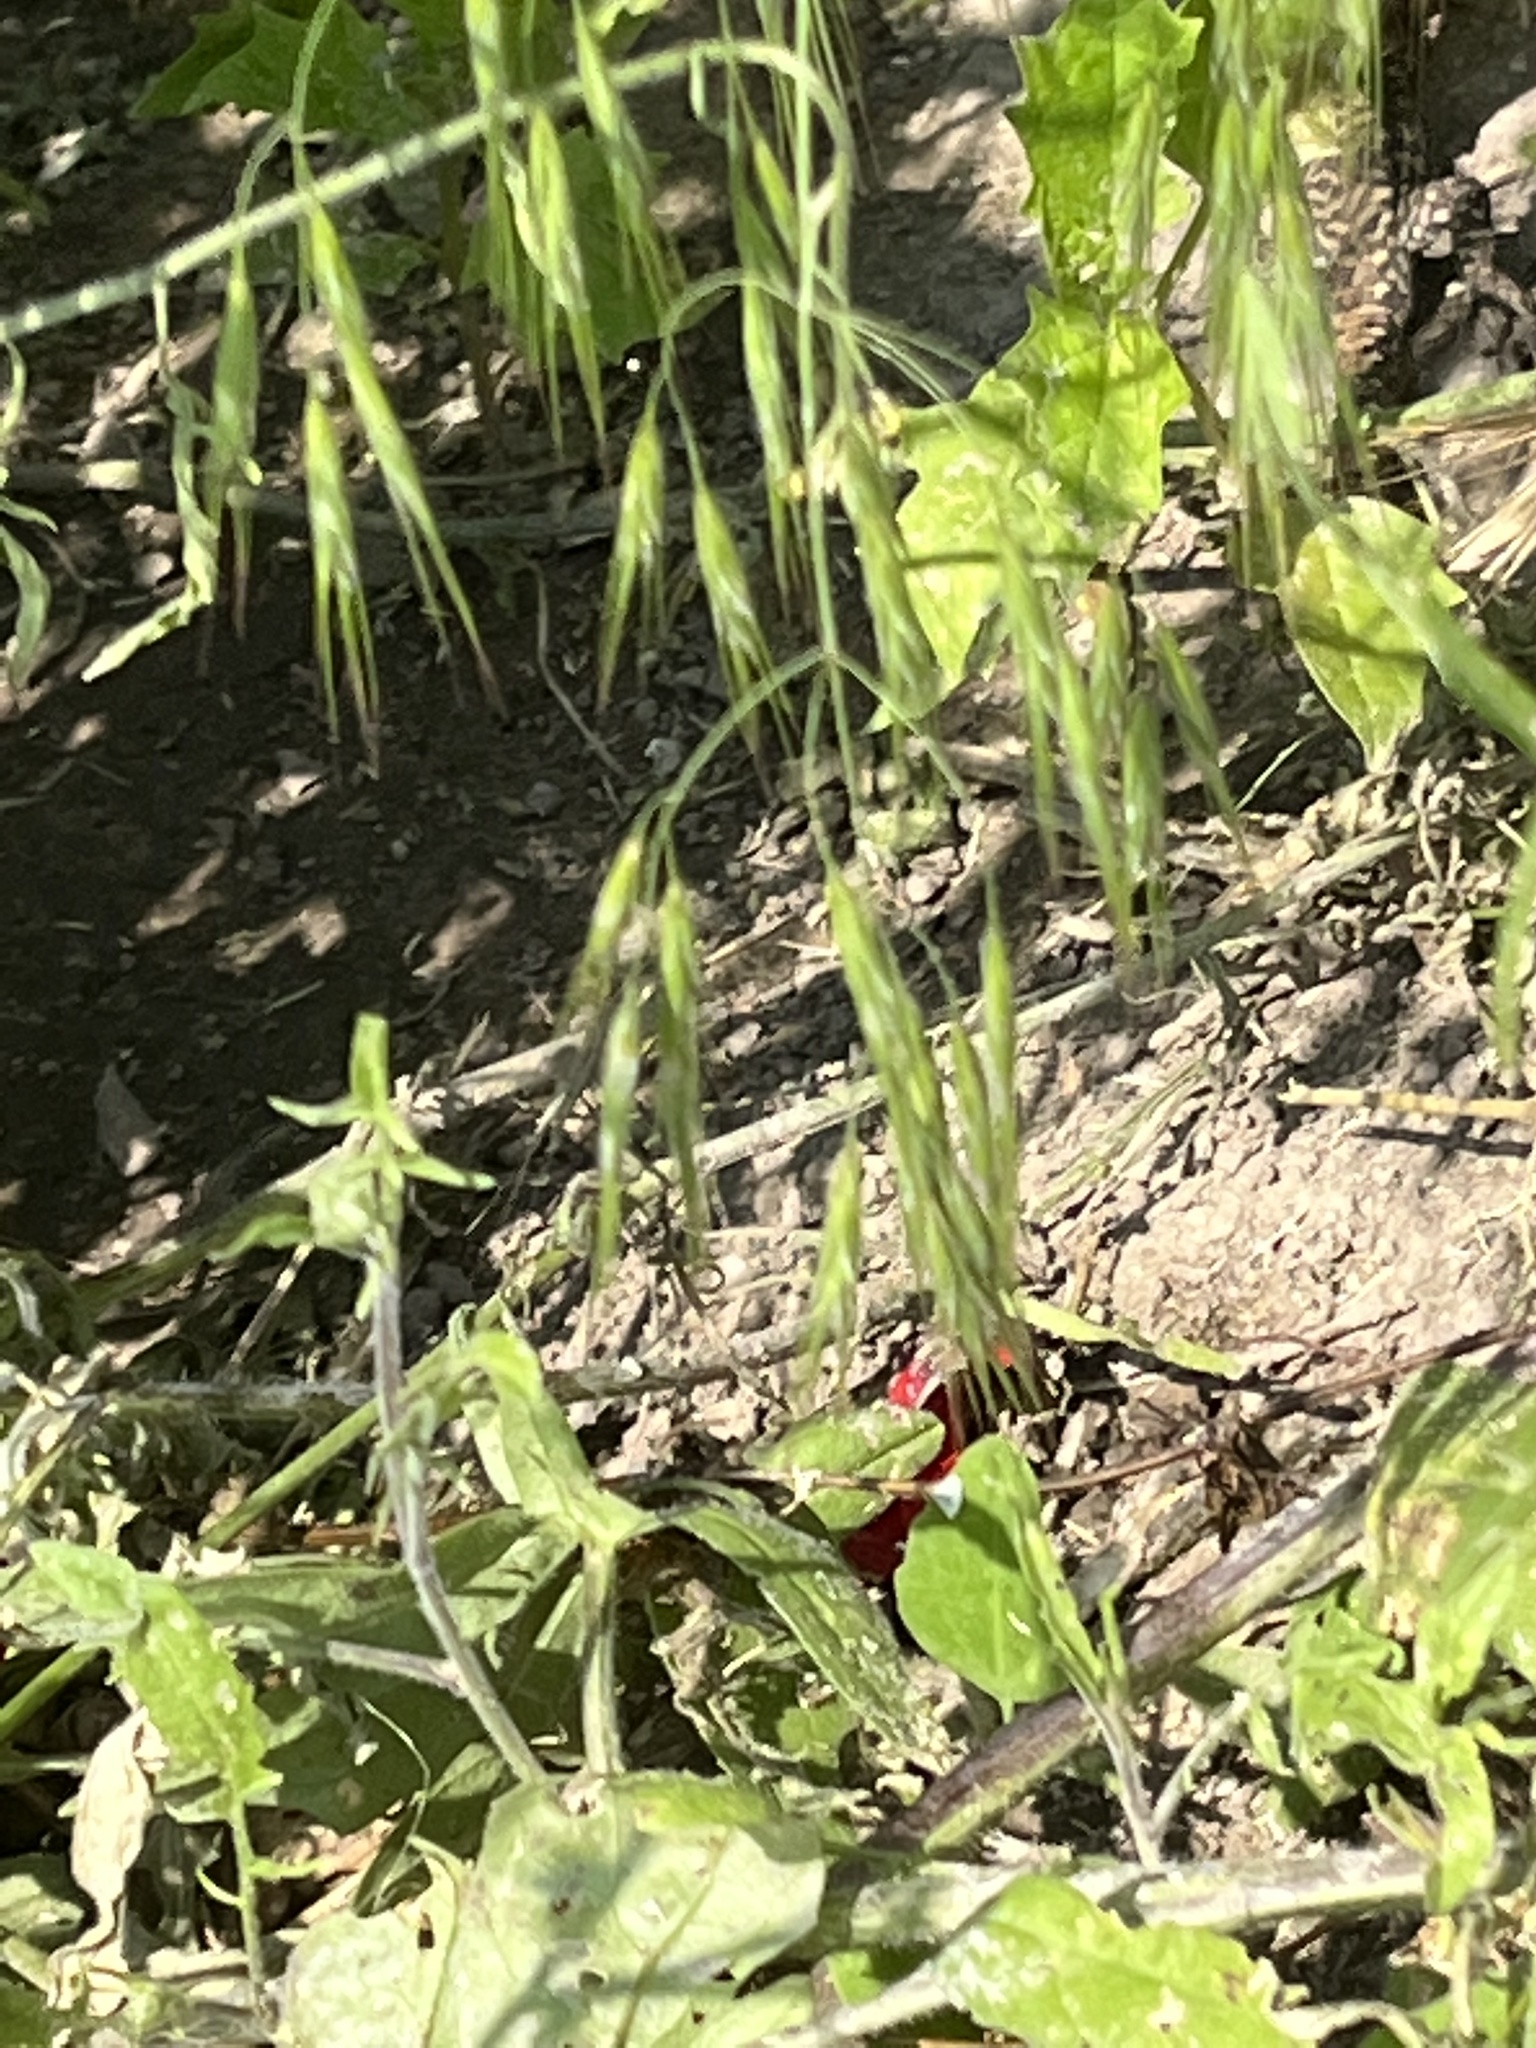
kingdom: Animalia
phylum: Chordata
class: Squamata
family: Lacertidae
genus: Podarcis
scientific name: Podarcis muralis
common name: Common wall lizard
